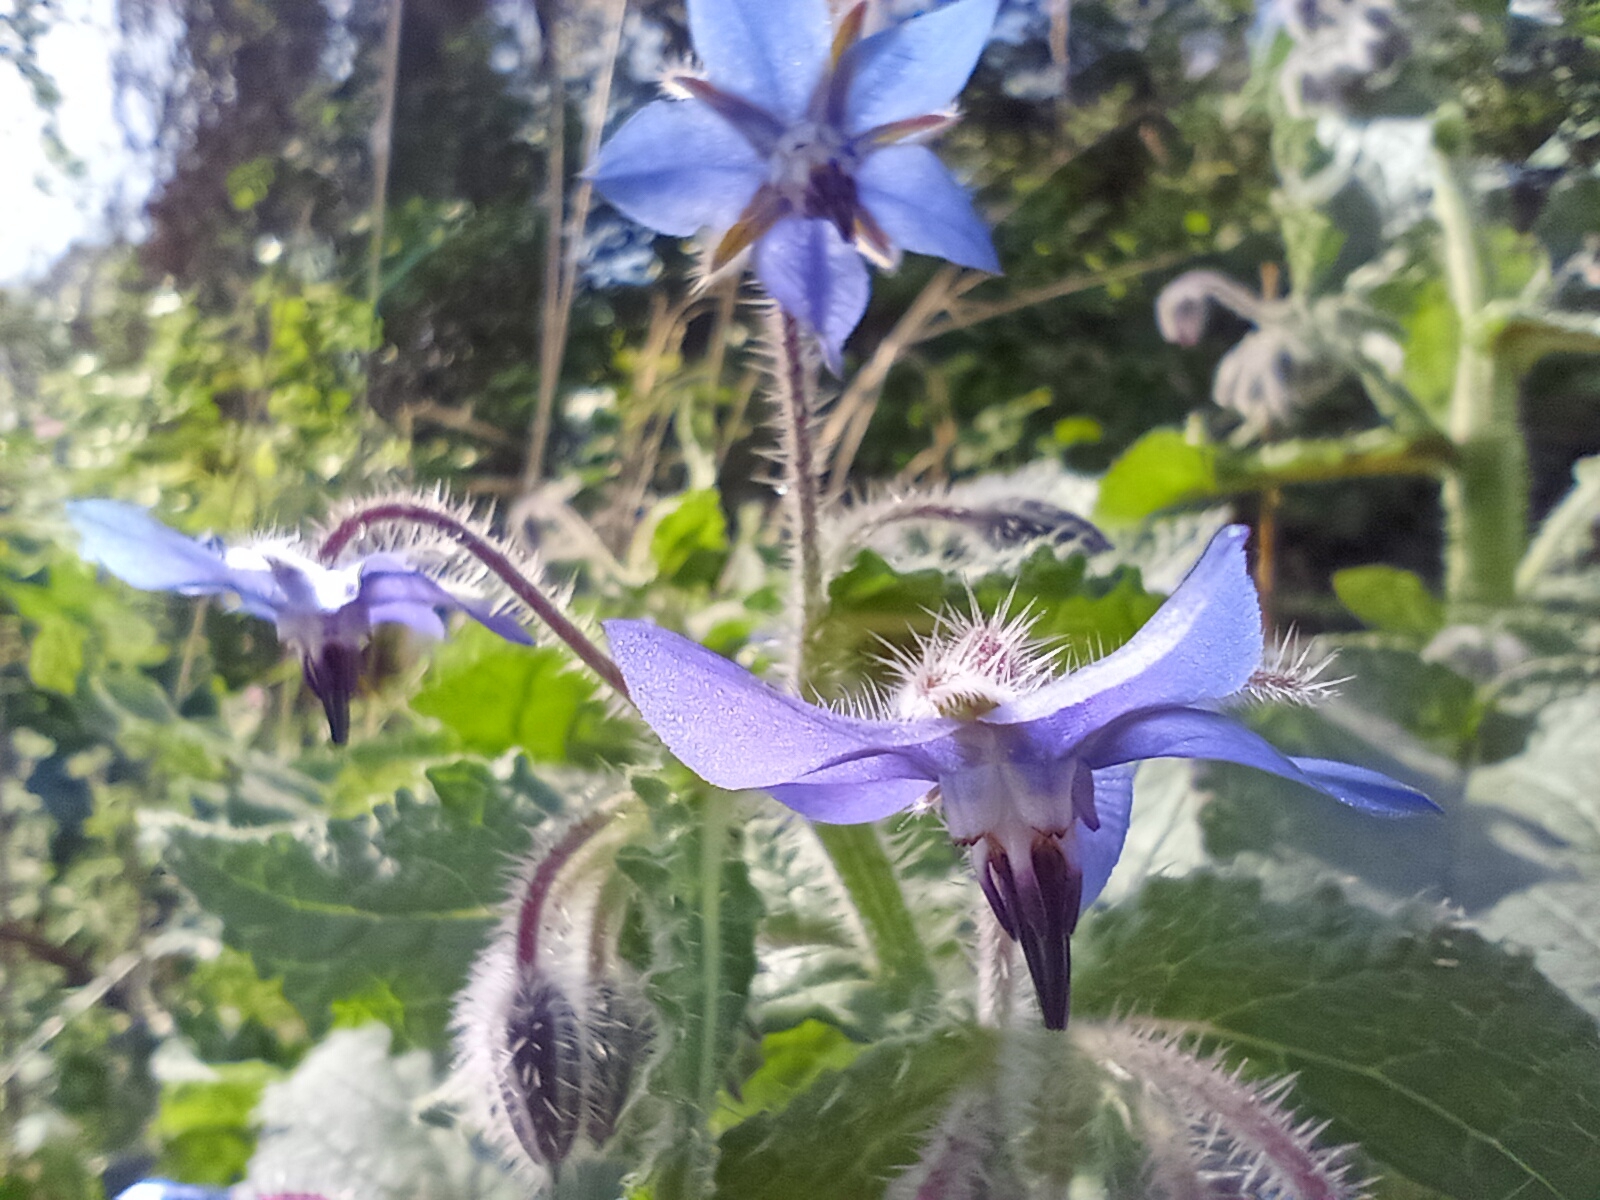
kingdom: Plantae
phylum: Tracheophyta
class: Magnoliopsida
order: Boraginales
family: Boraginaceae
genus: Borago
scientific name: Borago officinalis
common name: Borage
